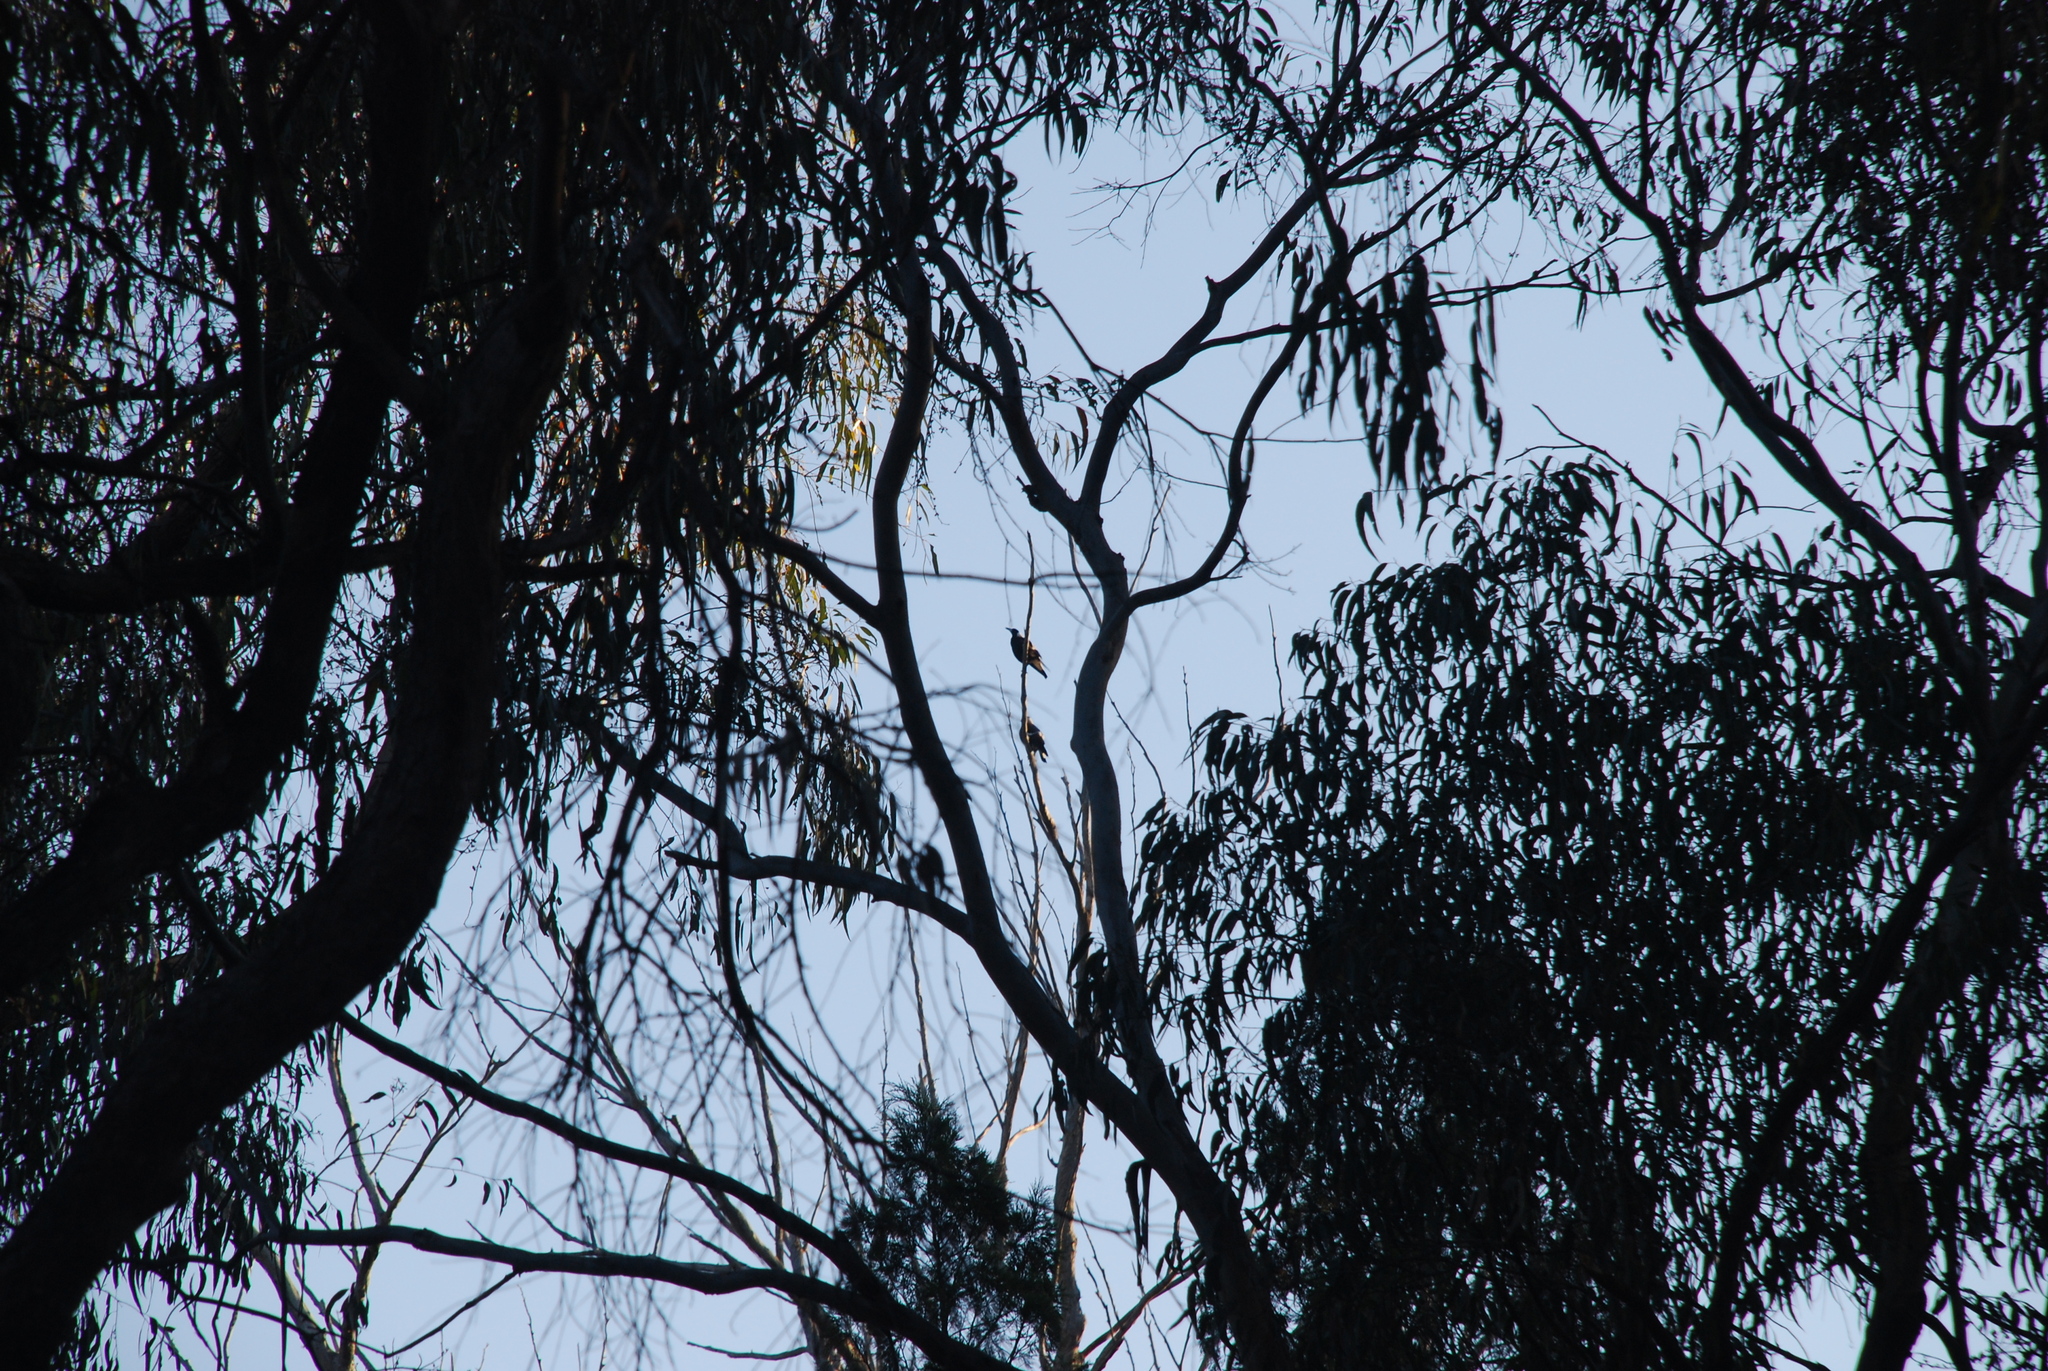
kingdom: Animalia
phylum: Chordata
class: Aves
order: Passeriformes
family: Cracticidae
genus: Gymnorhina
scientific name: Gymnorhina tibicen
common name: Australian magpie
